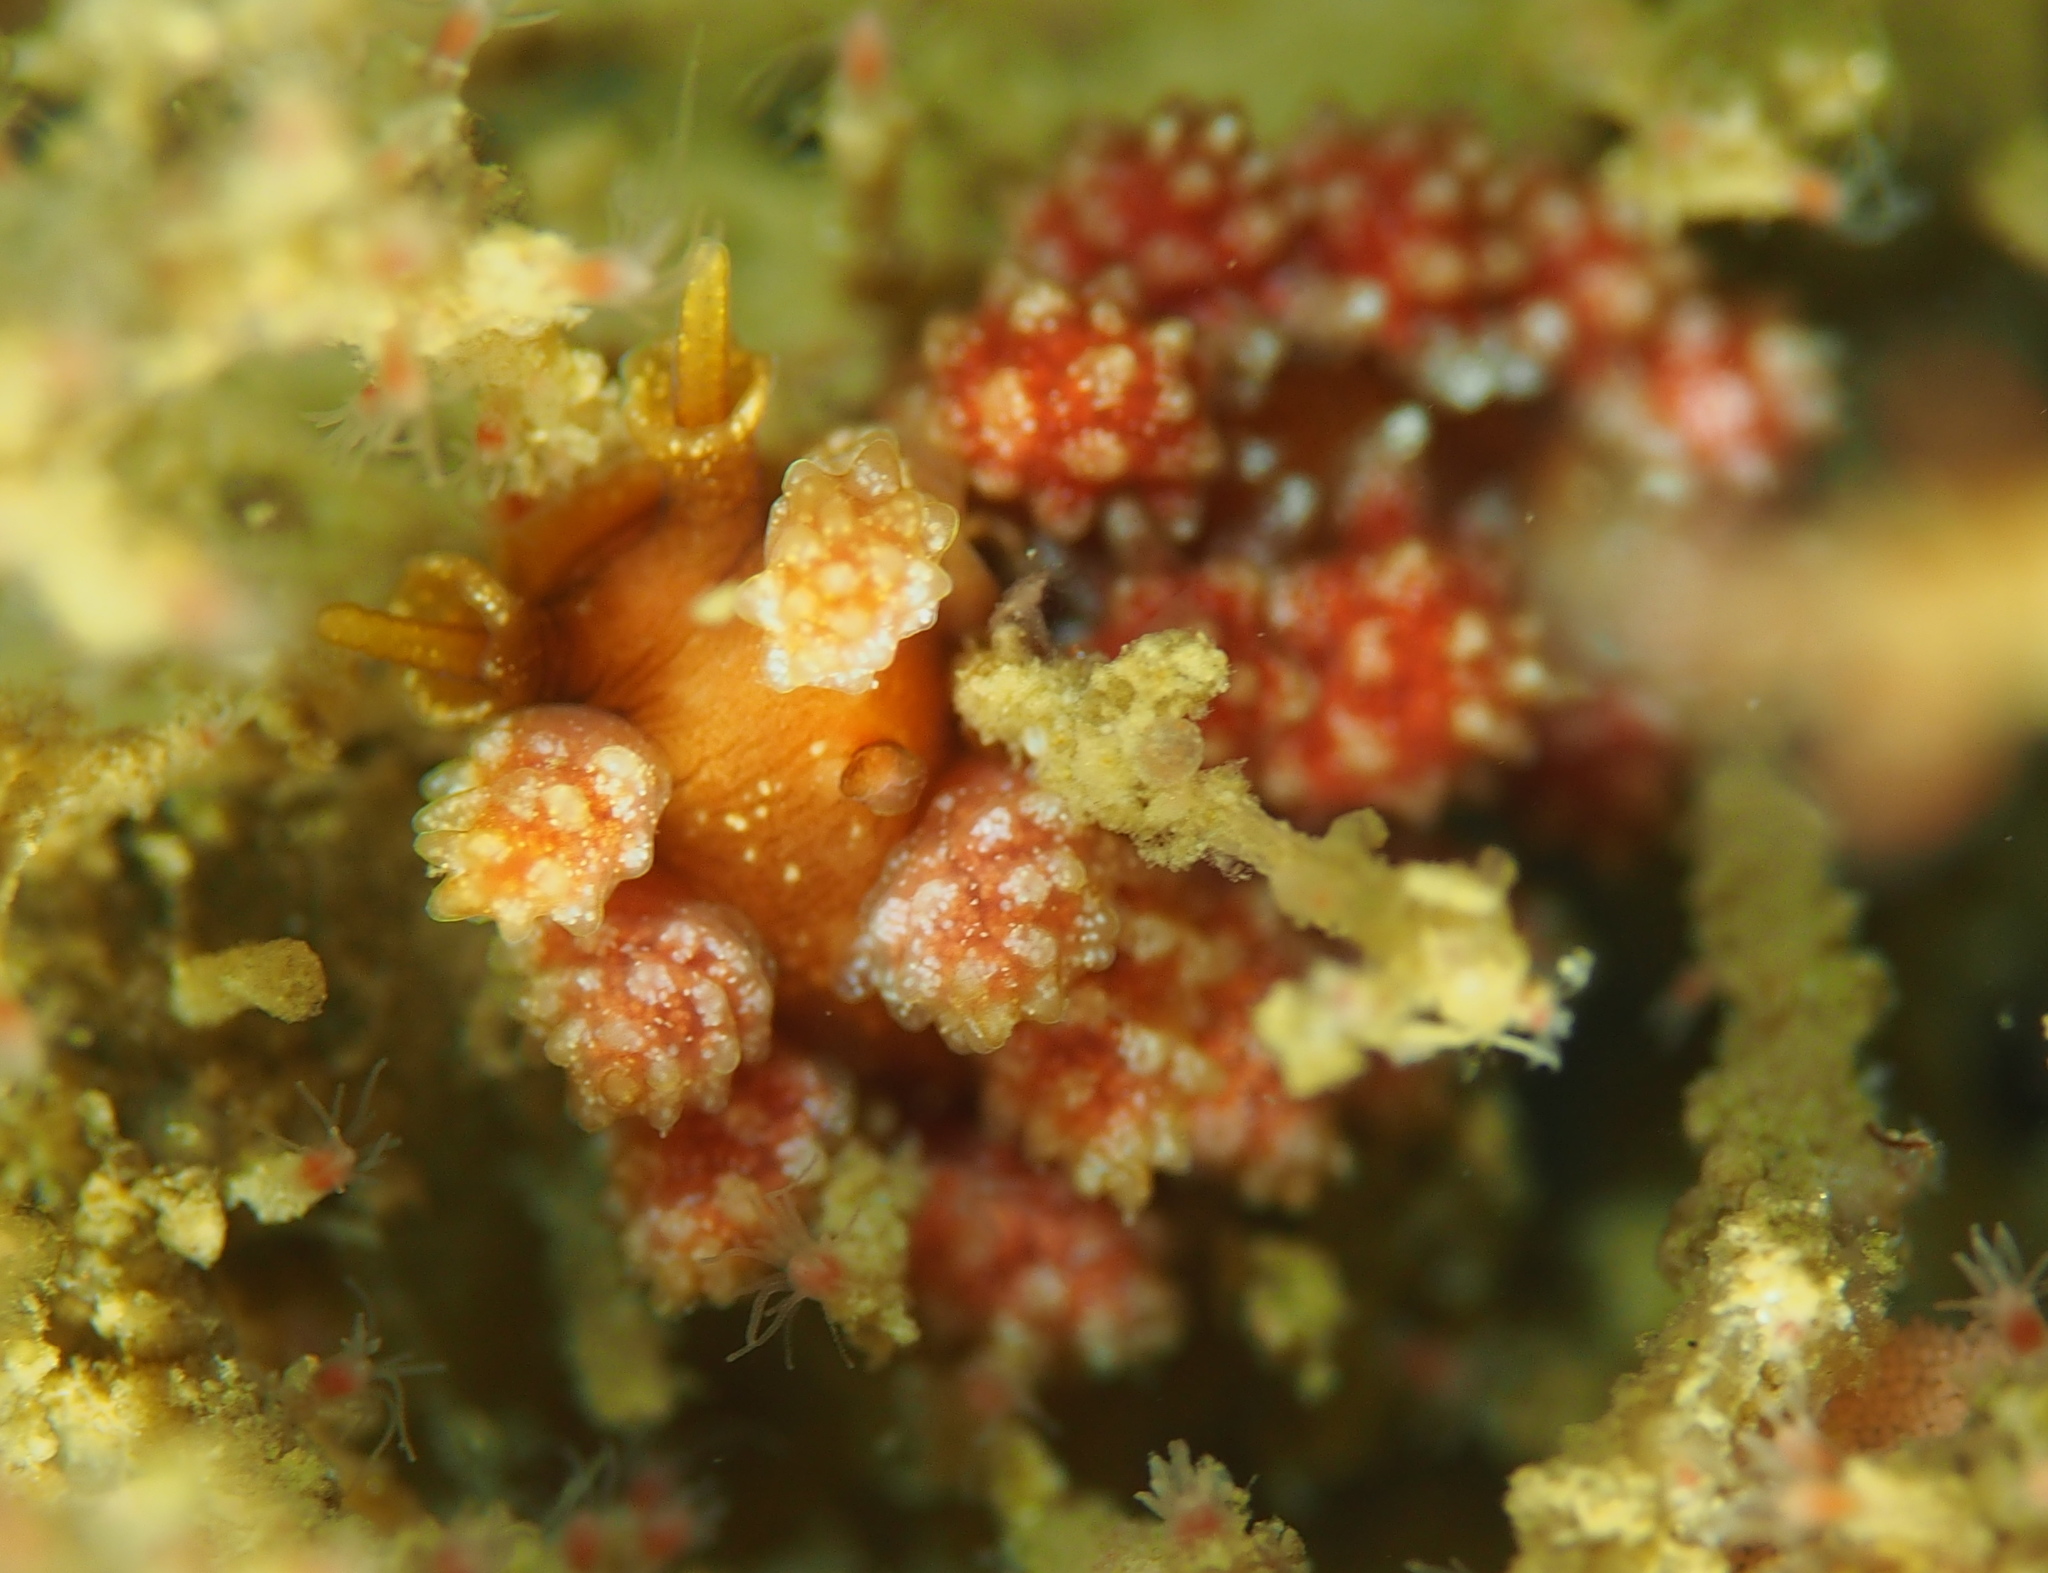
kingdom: Animalia
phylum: Mollusca
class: Gastropoda
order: Nudibranchia
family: Dotidae
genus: Doto
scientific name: Doto fragilis
